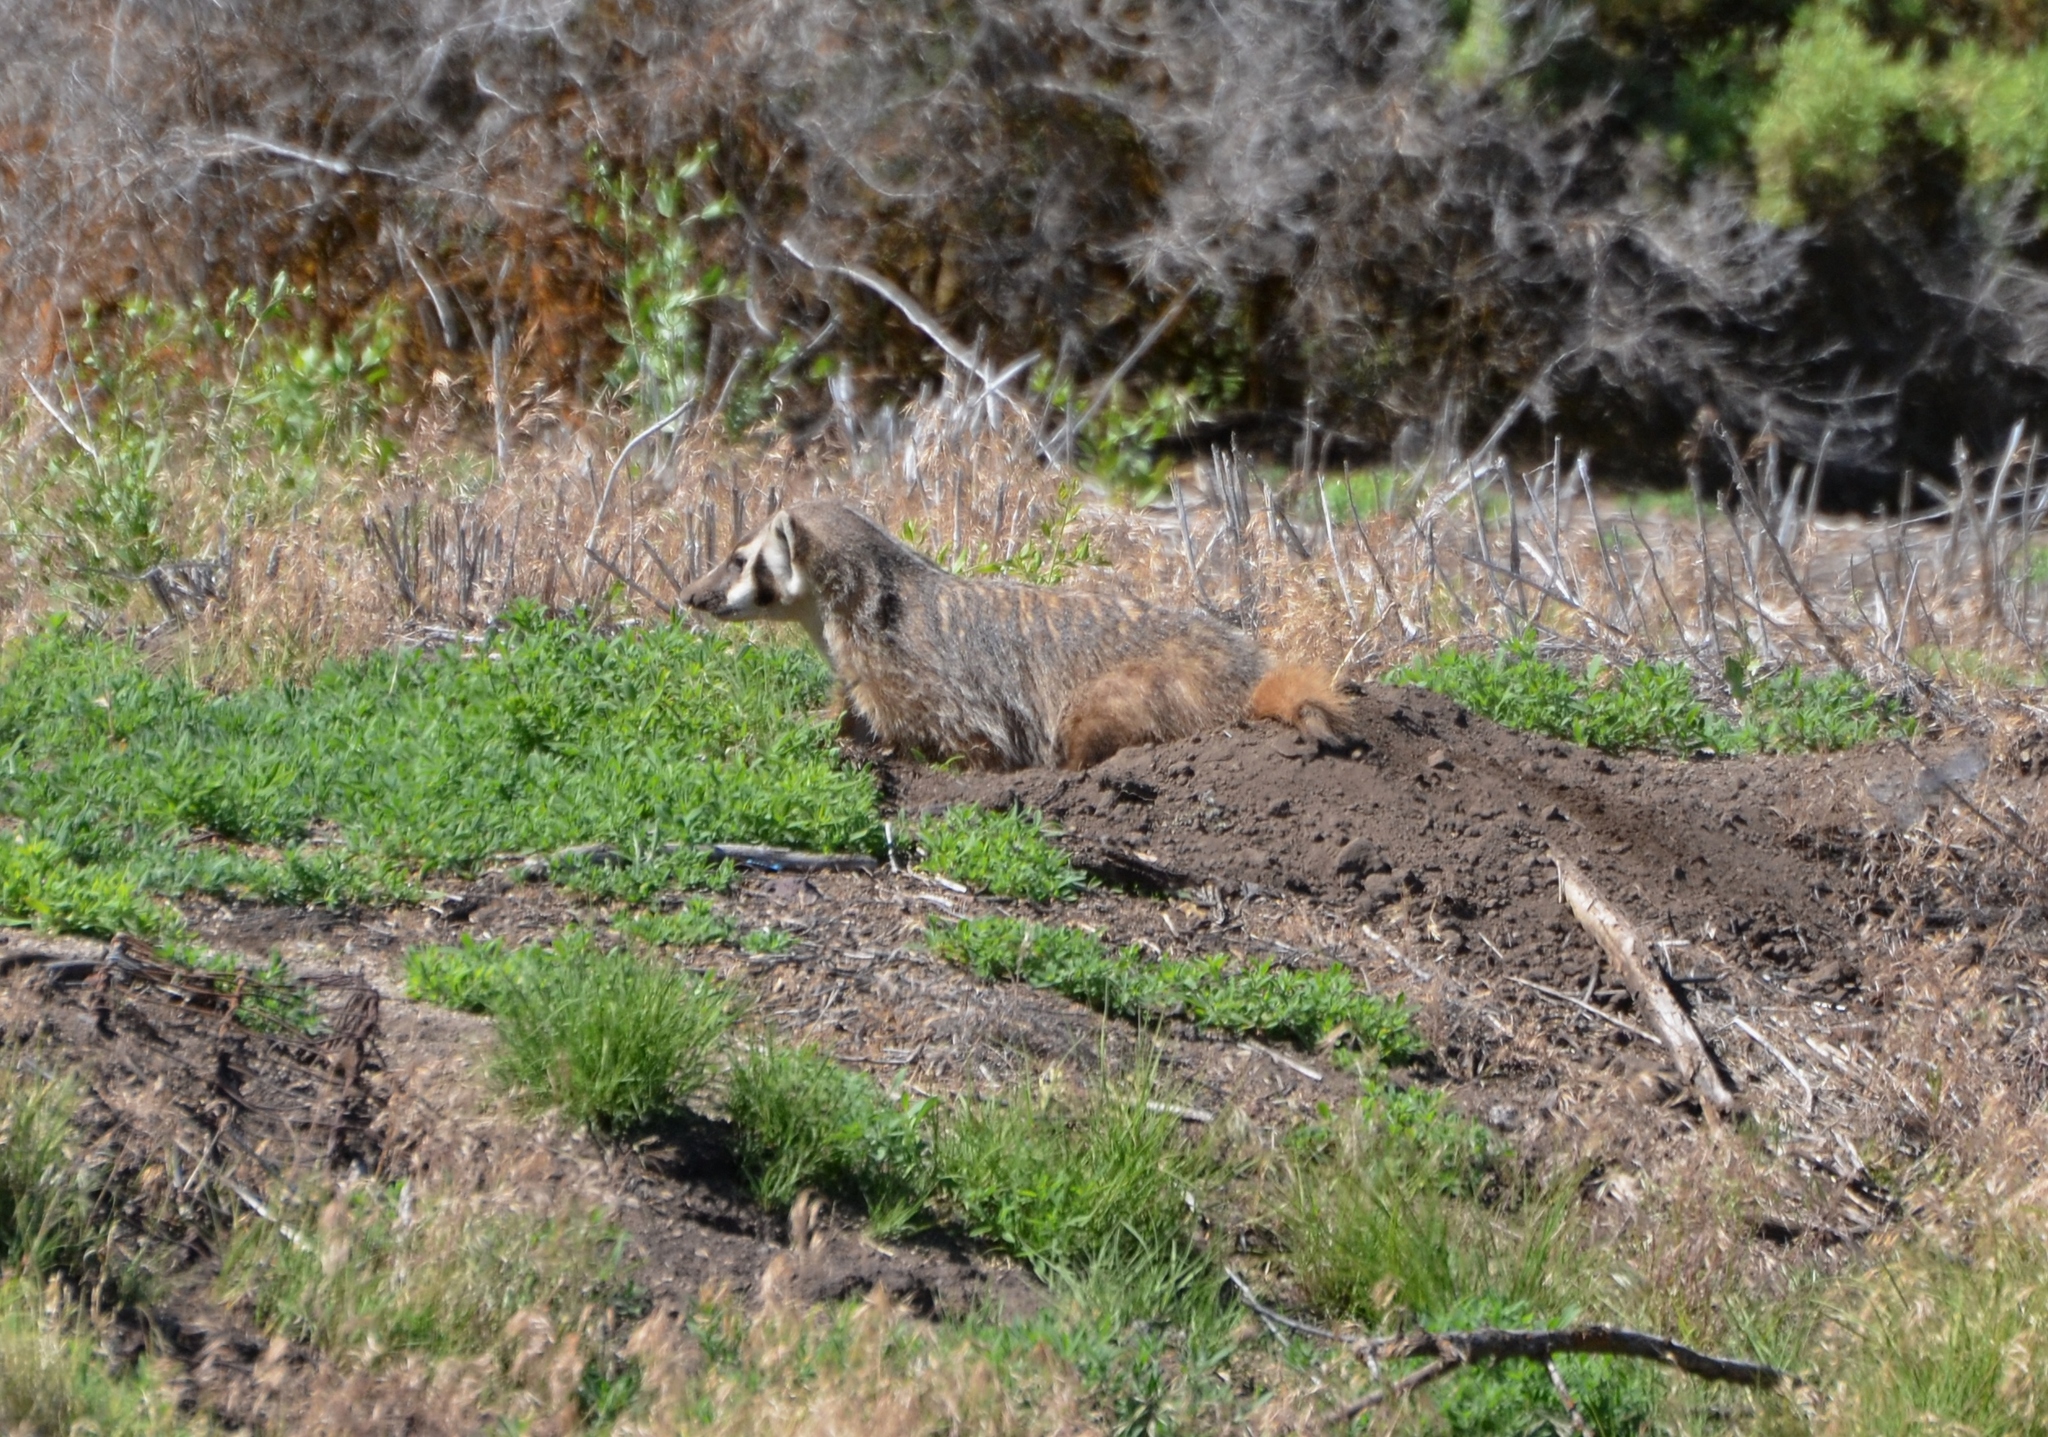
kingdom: Animalia
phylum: Chordata
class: Mammalia
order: Carnivora
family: Mustelidae
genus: Taxidea
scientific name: Taxidea taxus
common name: American badger
